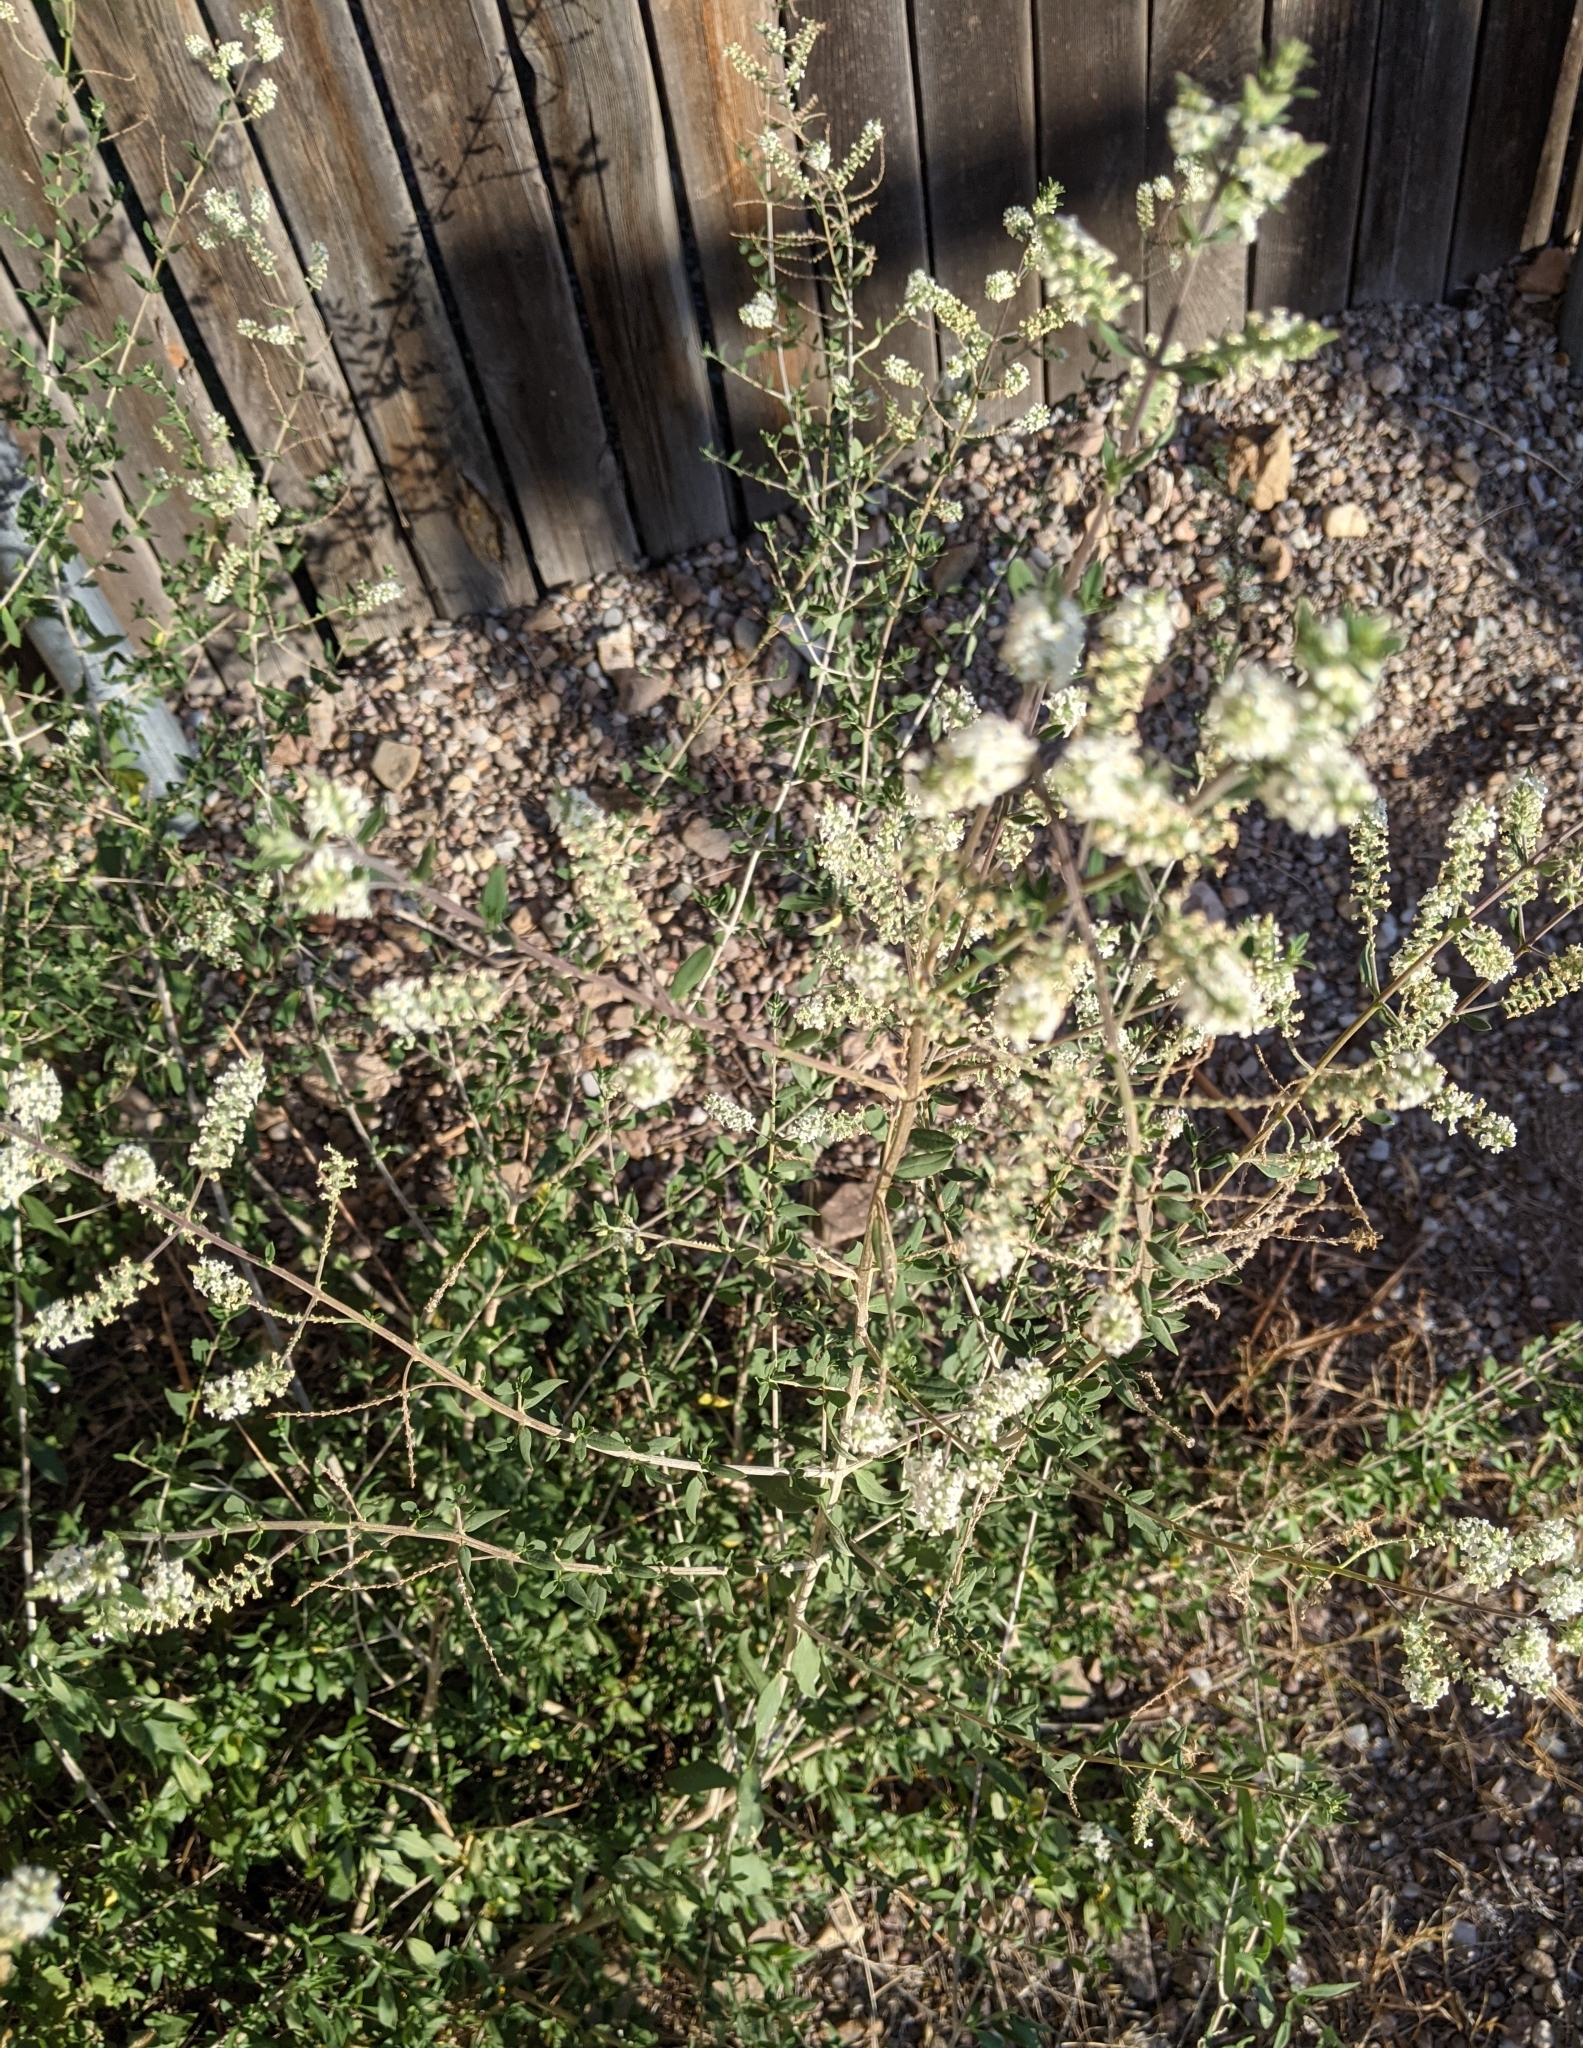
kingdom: Plantae
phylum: Tracheophyta
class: Magnoliopsida
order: Lamiales
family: Verbenaceae
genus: Aloysia
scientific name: Aloysia gratissima
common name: Common bee-brush
